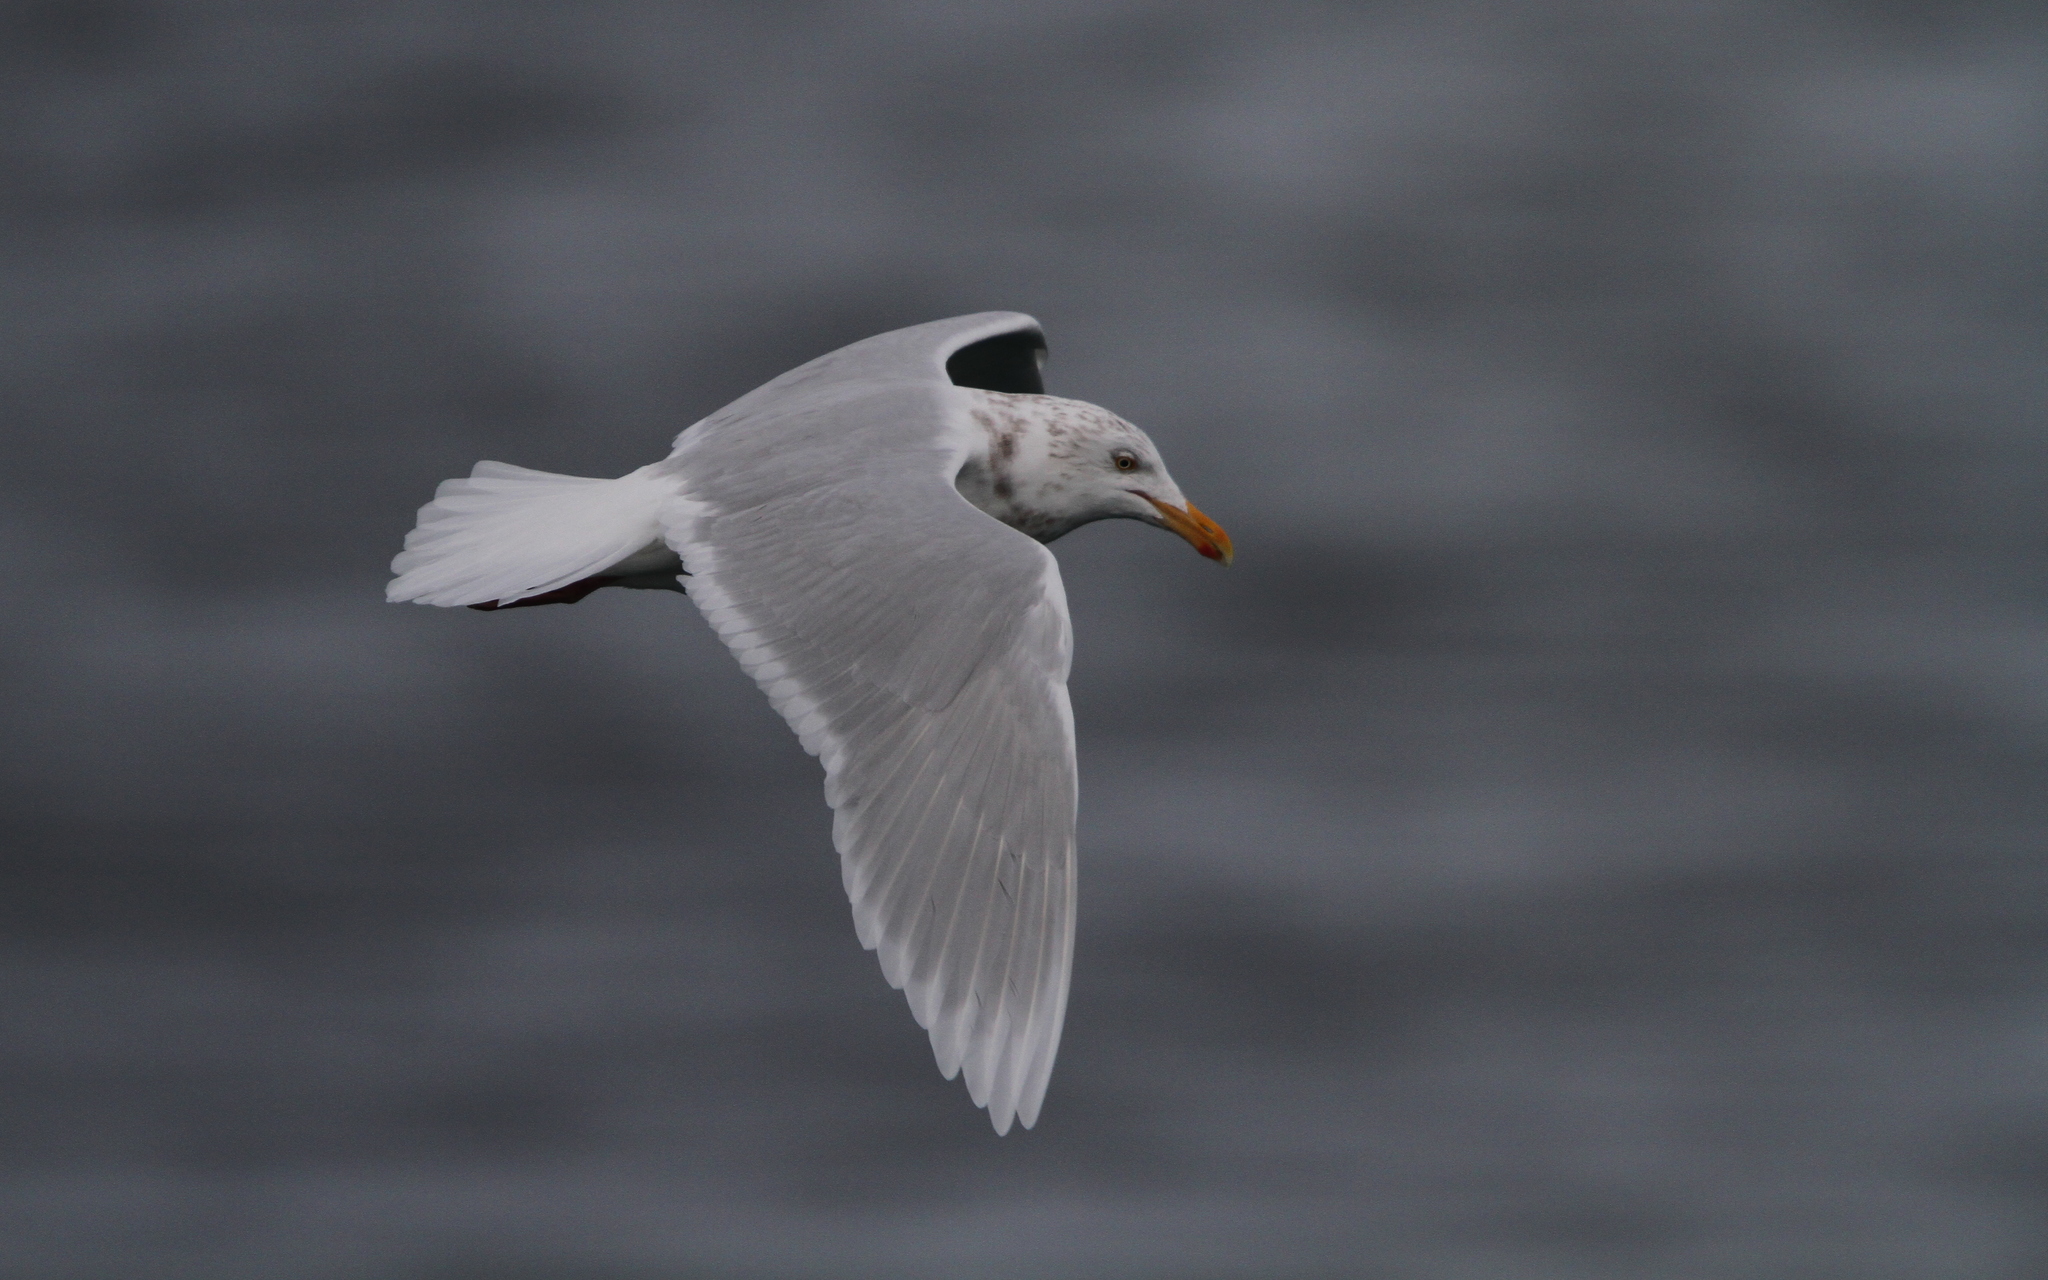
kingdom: Animalia
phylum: Chordata
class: Aves
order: Charadriiformes
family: Laridae
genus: Larus
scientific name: Larus hyperboreus
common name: Glaucous gull
